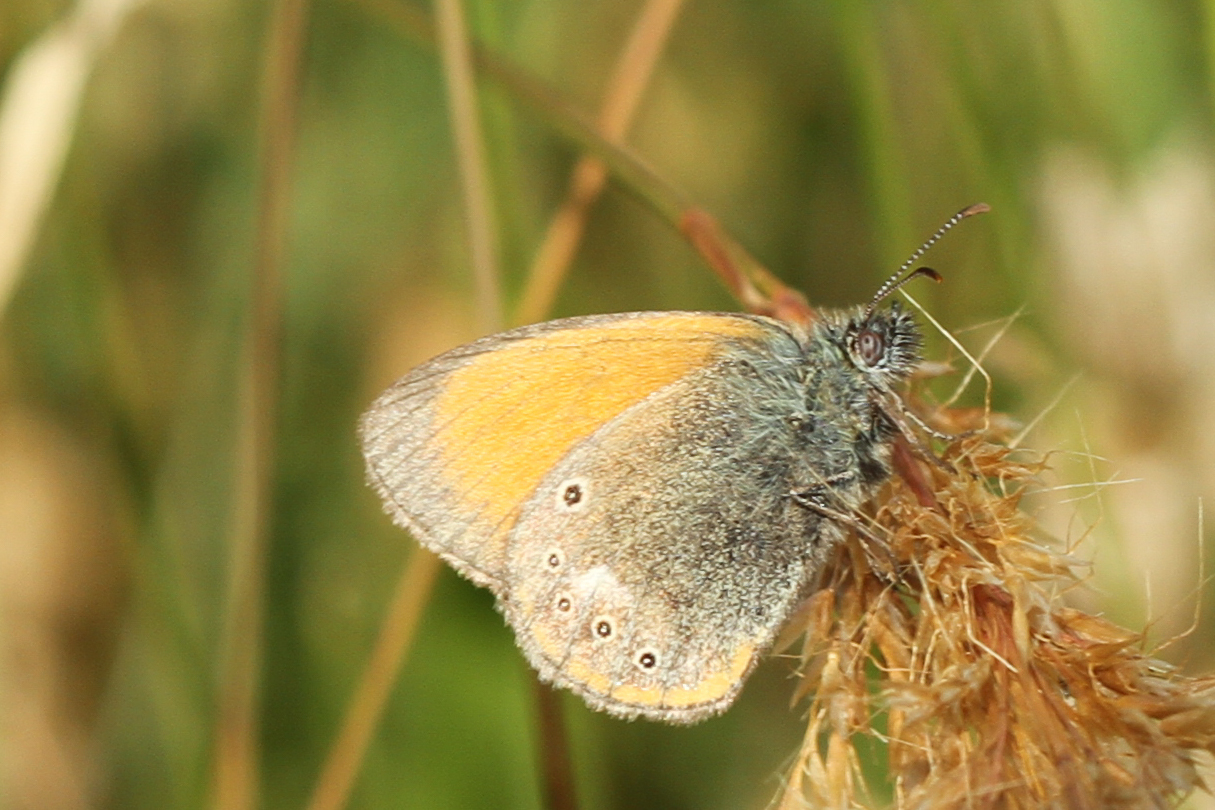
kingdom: Animalia
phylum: Arthropoda
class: Insecta
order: Lepidoptera
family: Nymphalidae
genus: Coenonympha
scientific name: Coenonympha iphis
